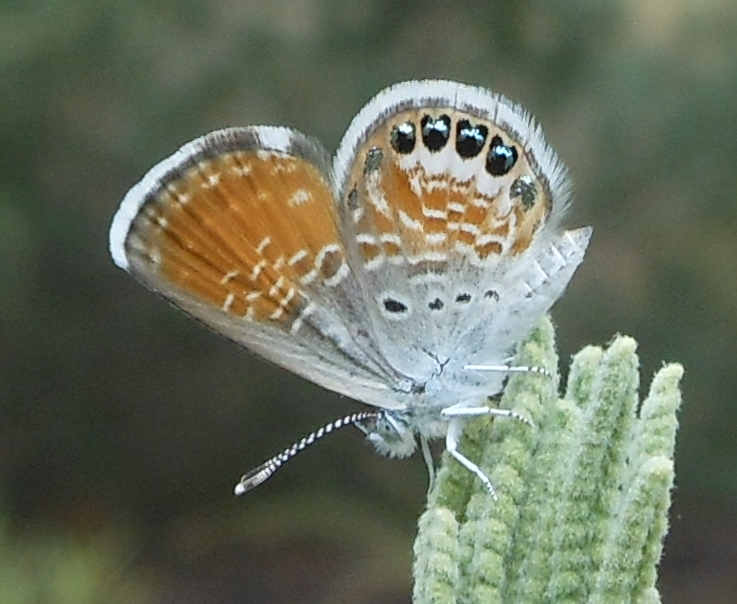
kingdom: Animalia
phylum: Arthropoda
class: Insecta
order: Lepidoptera
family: Lycaenidae
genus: Brephidium
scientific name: Brephidium exilis
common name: Pygmy blue
